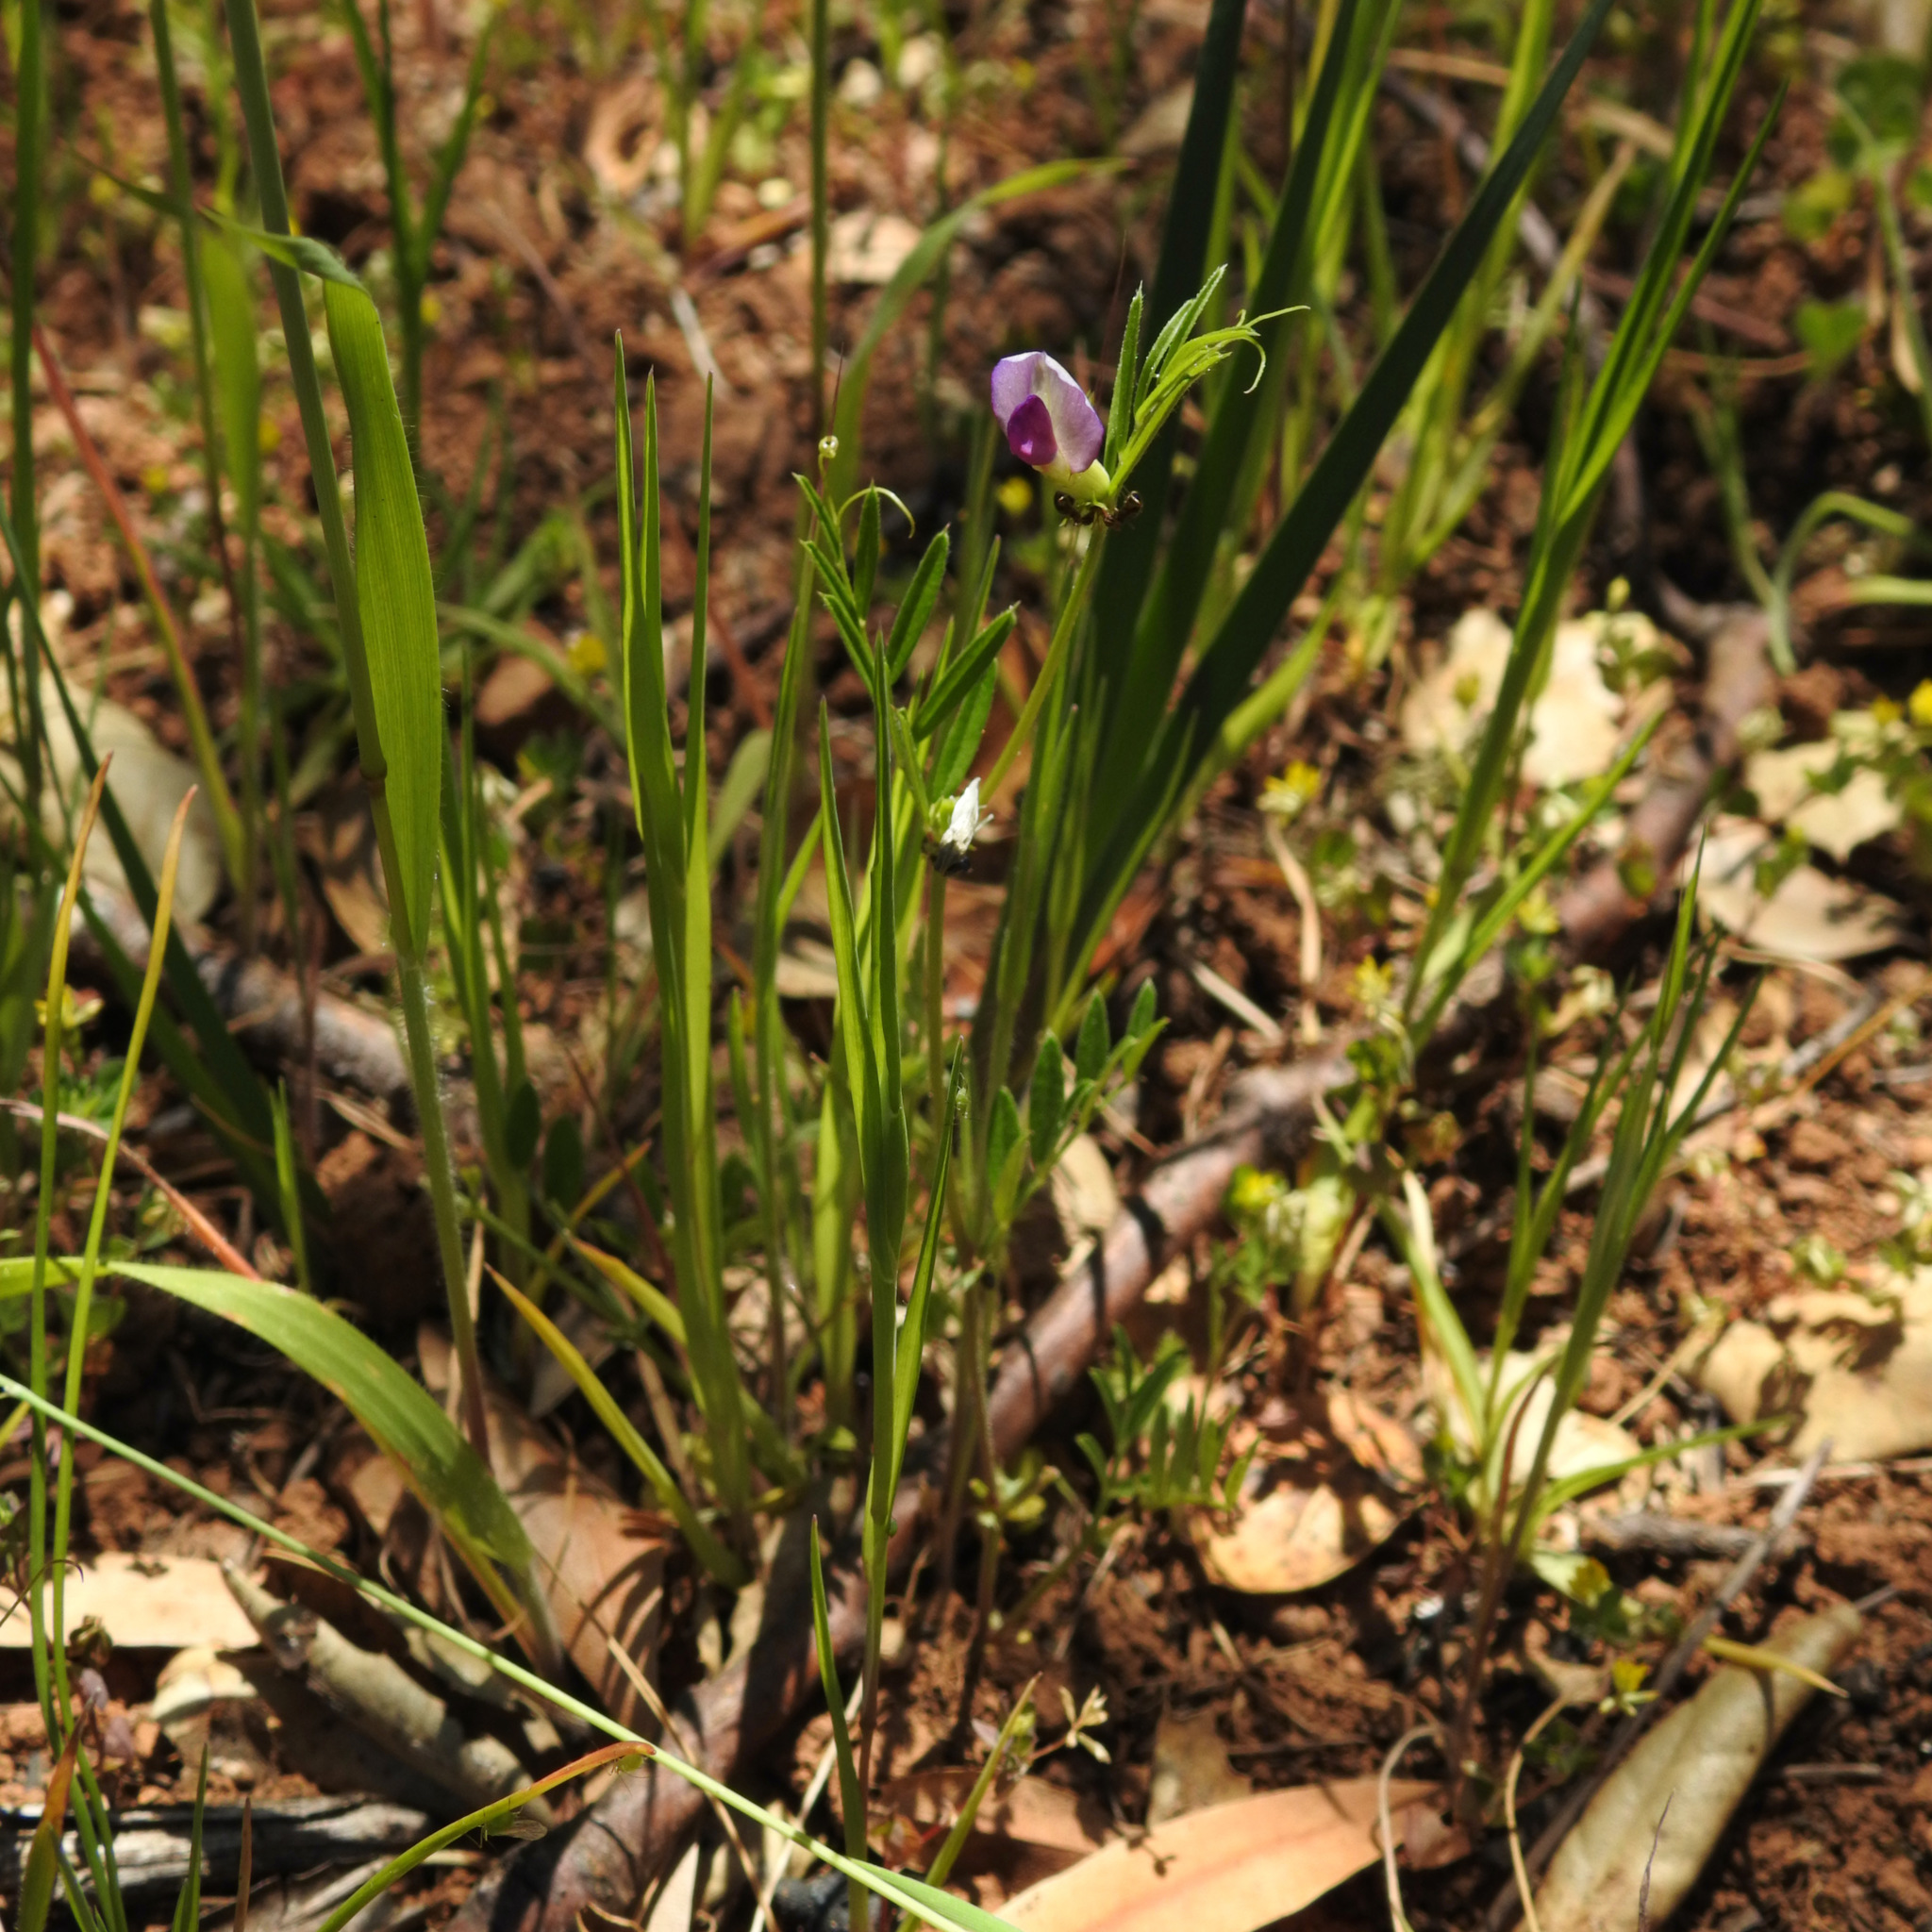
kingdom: Plantae
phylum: Tracheophyta
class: Magnoliopsida
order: Fabales
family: Fabaceae
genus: Vicia
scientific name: Vicia sativa
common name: Garden vetch
